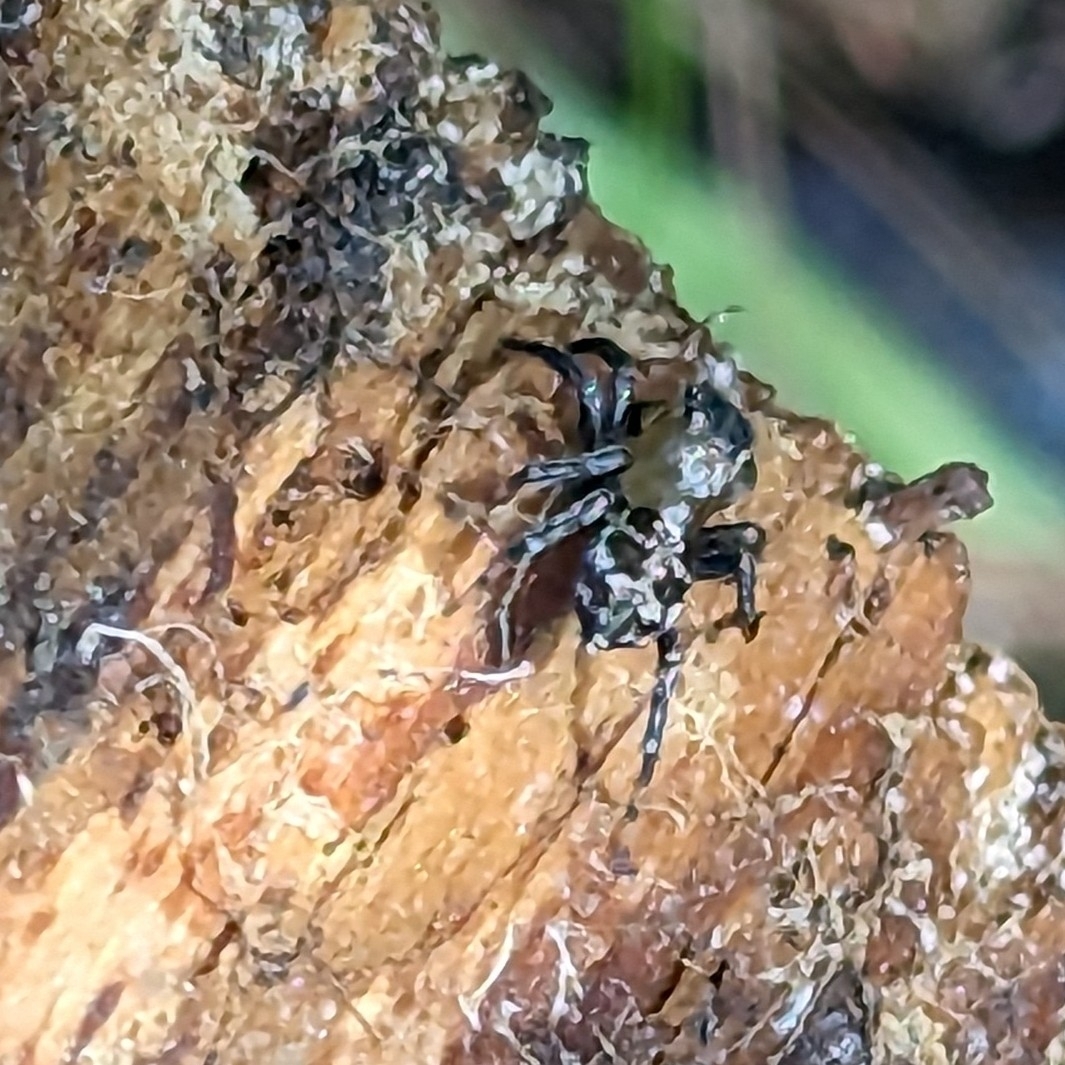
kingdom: Animalia
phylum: Arthropoda
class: Arachnida
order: Araneae
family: Salticidae
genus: Naphrys
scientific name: Naphrys pulex
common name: Flea jumping spider
